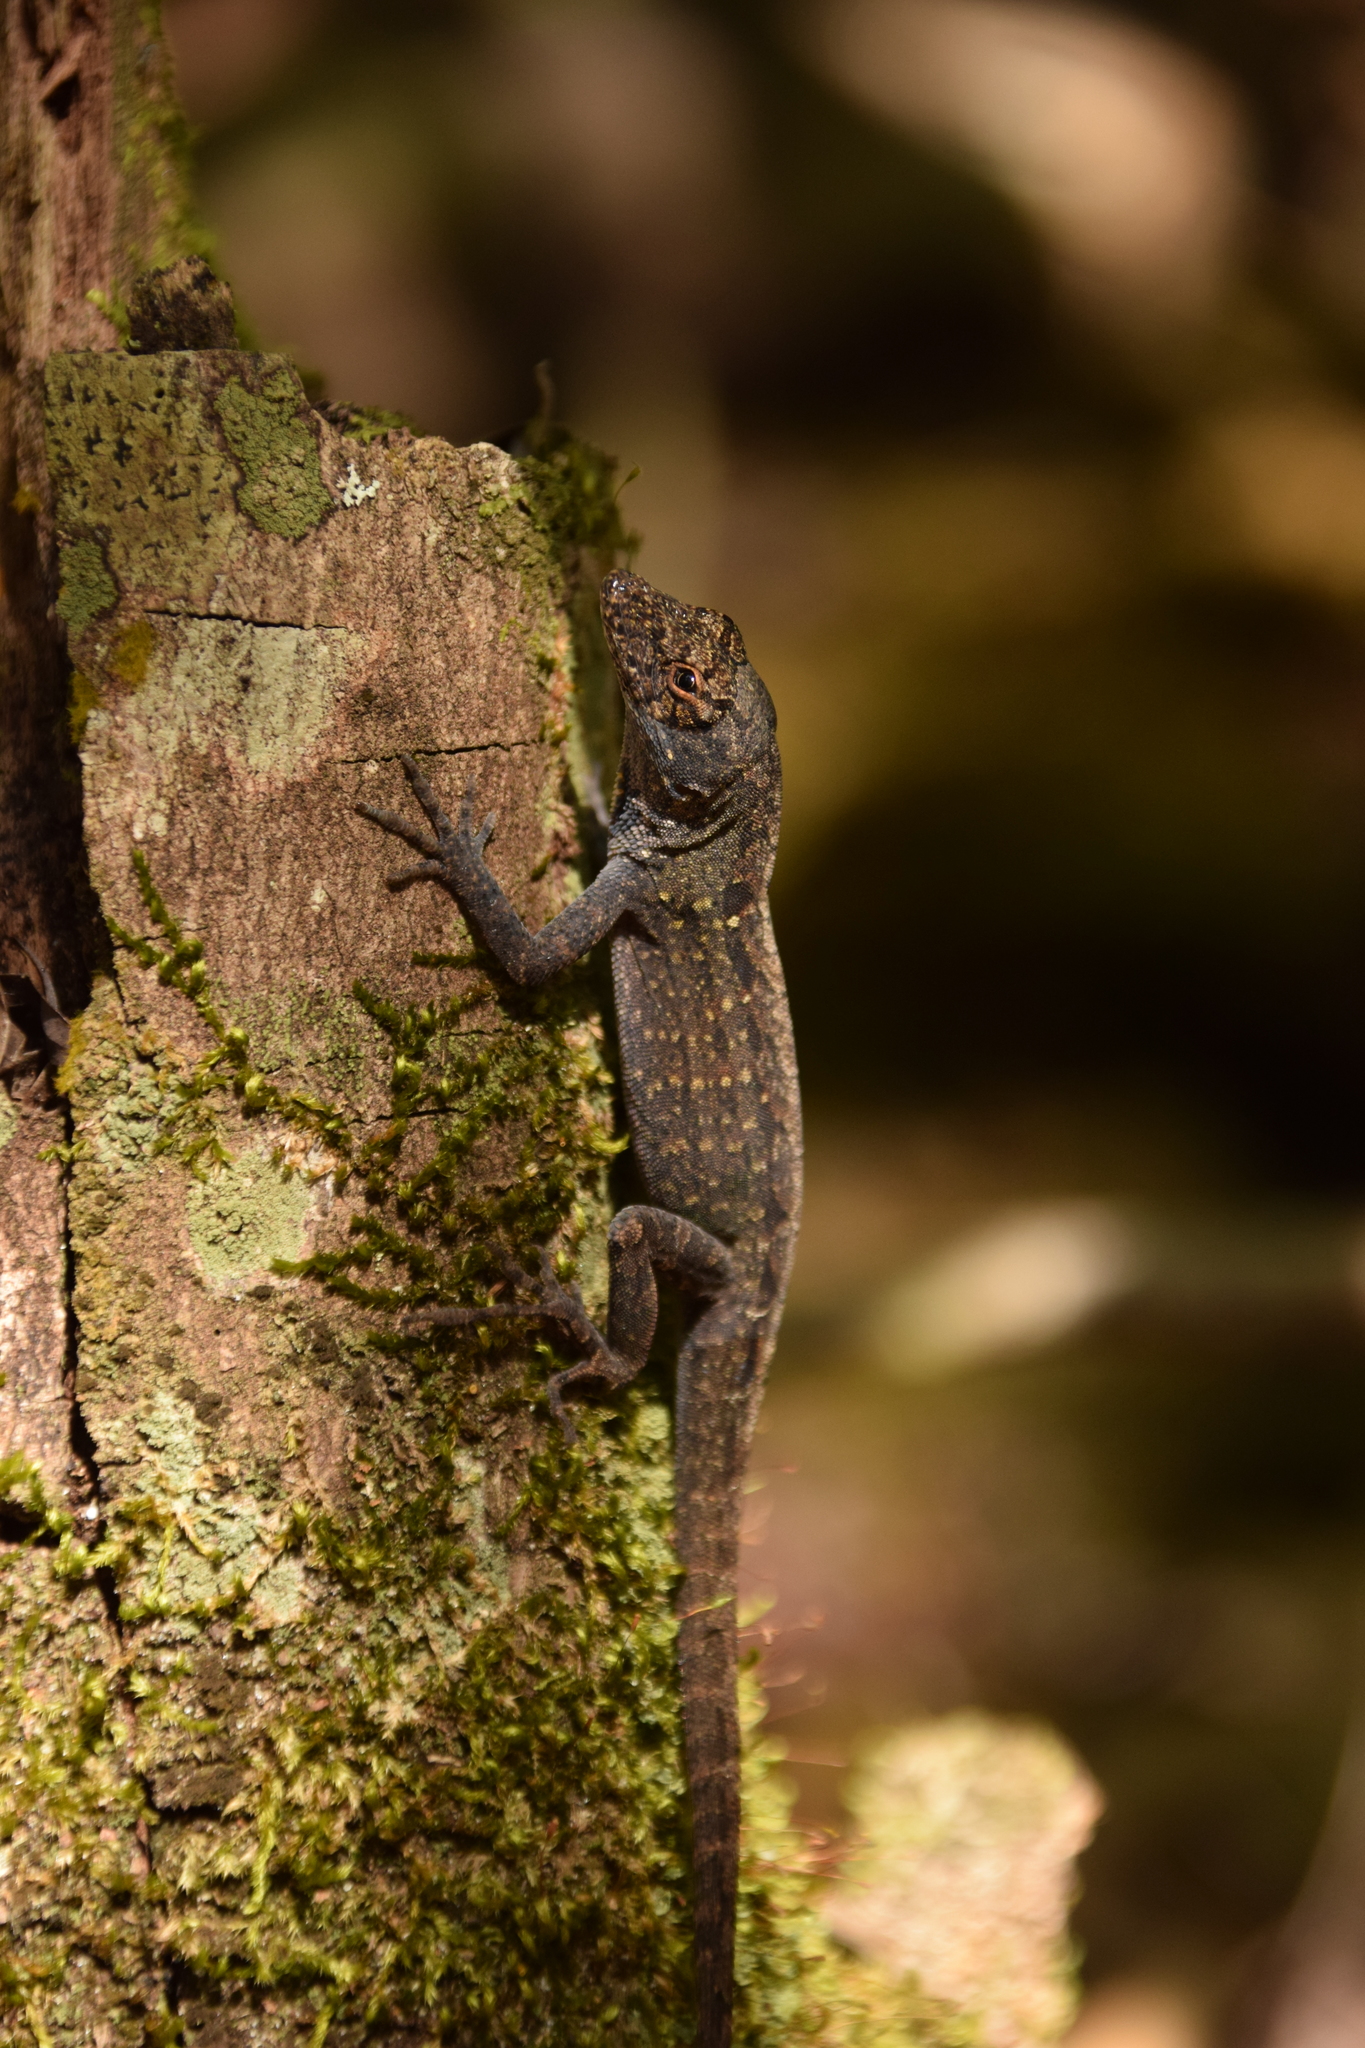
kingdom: Animalia
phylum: Chordata
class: Squamata
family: Dactyloidae
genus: Anolis
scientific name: Anolis sagrei
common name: Brown anole
